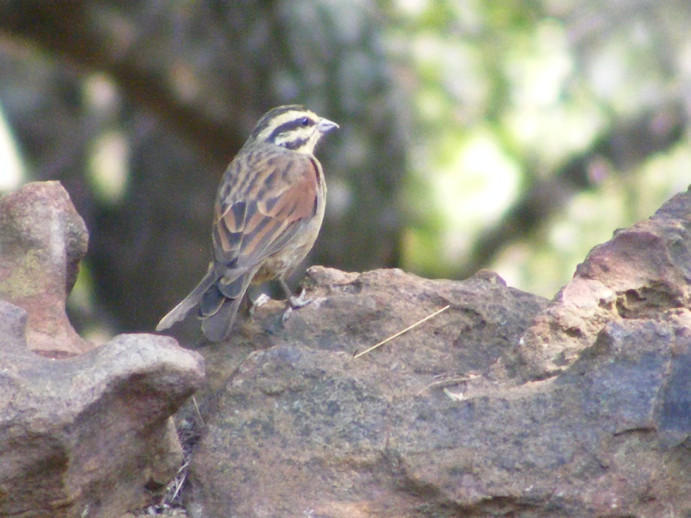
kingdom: Animalia
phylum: Chordata
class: Aves
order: Passeriformes
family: Emberizidae
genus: Emberiza
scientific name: Emberiza capensis
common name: Cape bunting
